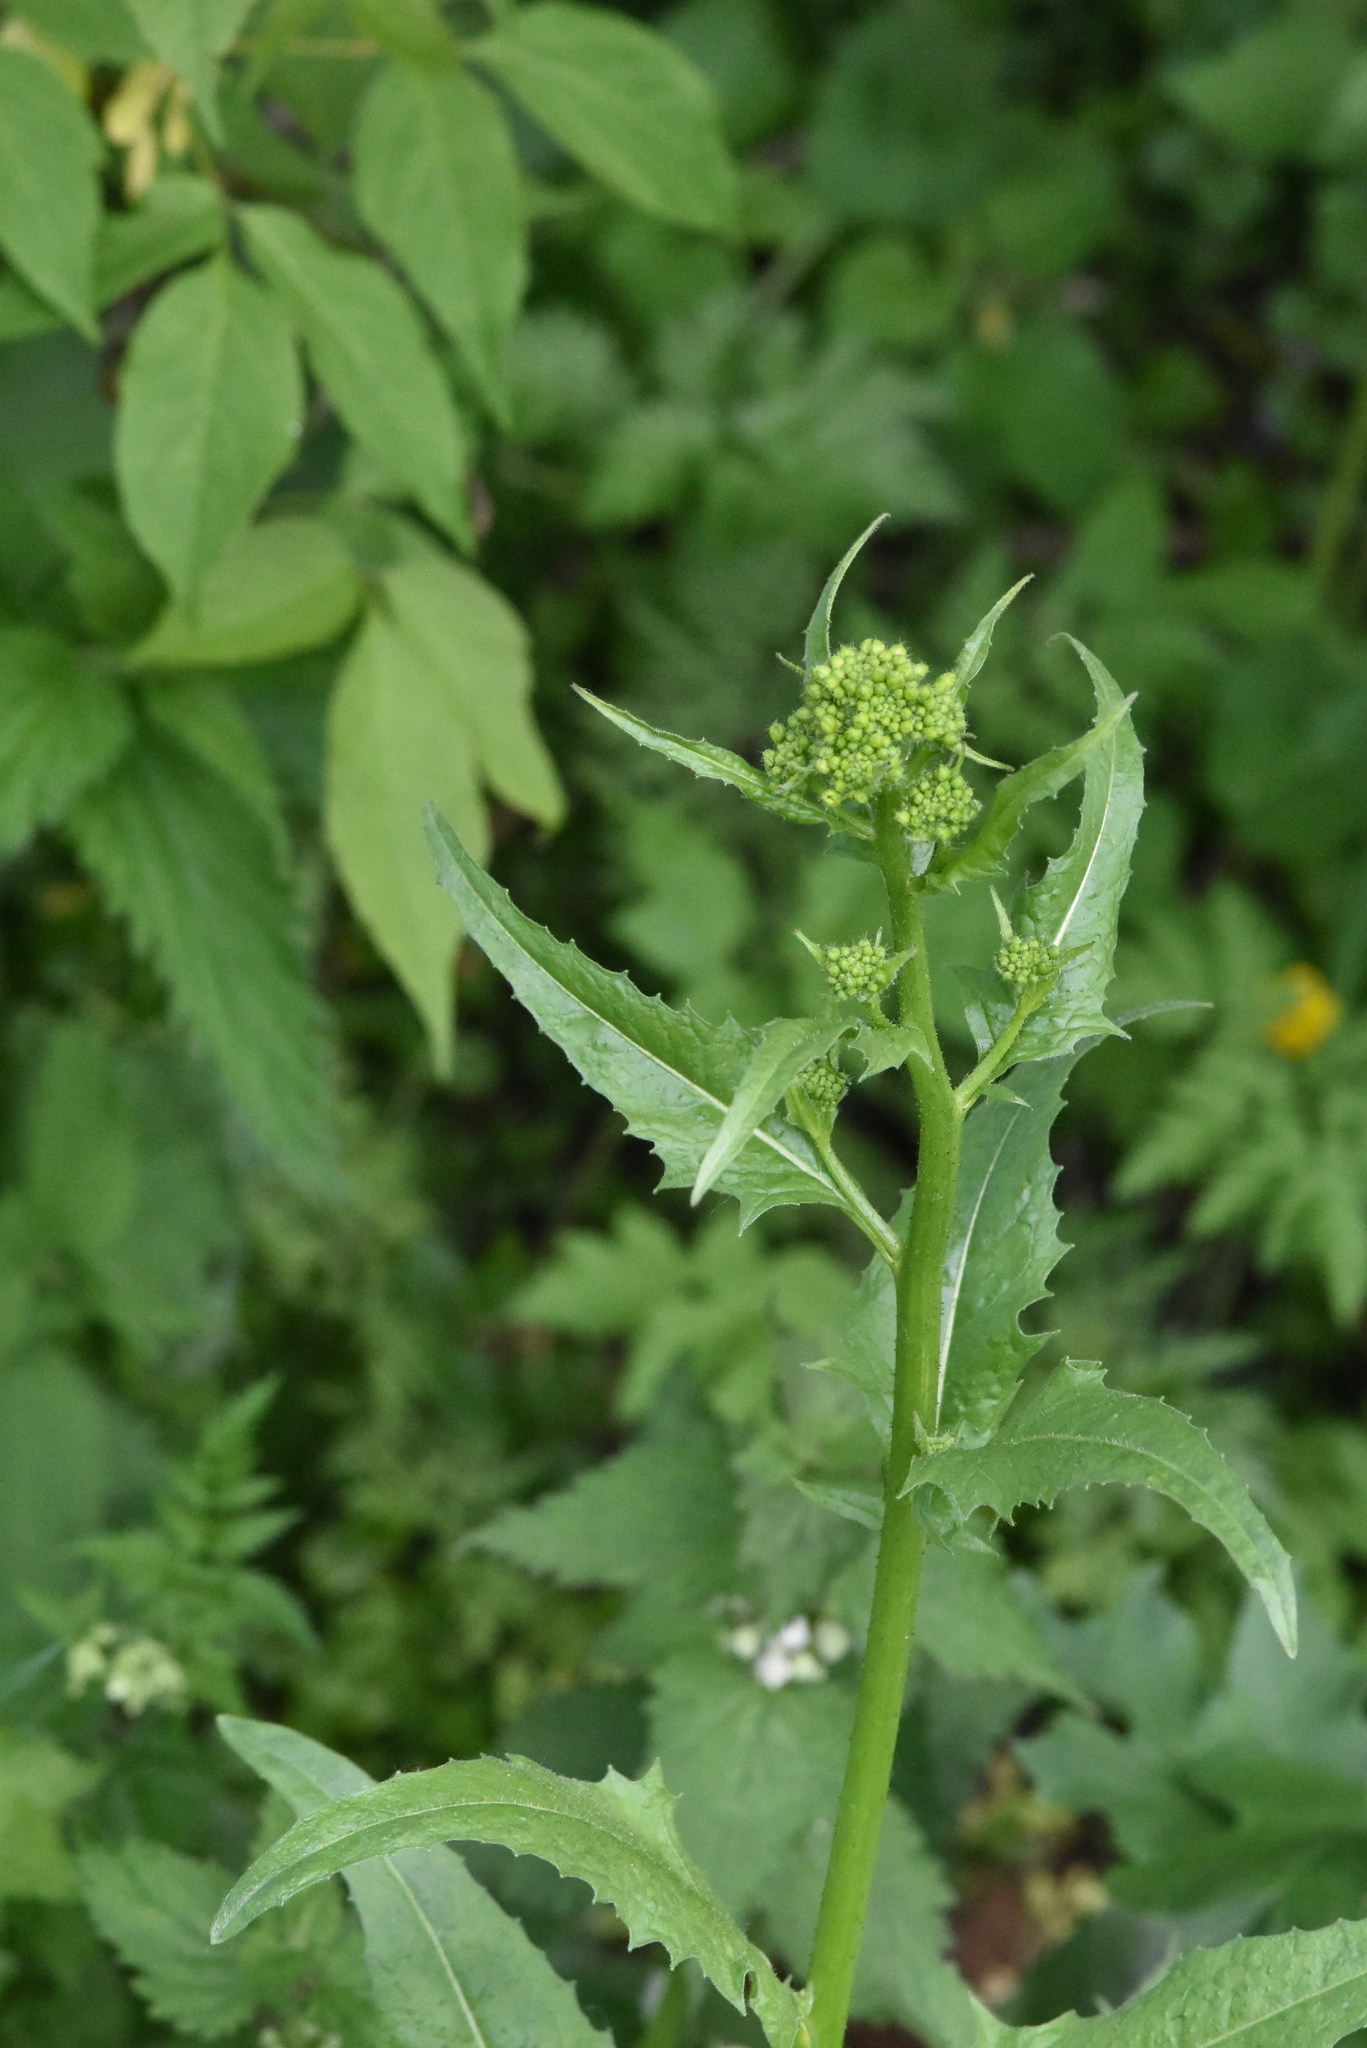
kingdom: Plantae
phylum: Tracheophyta
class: Magnoliopsida
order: Brassicales
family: Brassicaceae
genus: Bunias
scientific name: Bunias orientalis
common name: Warty-cabbage
